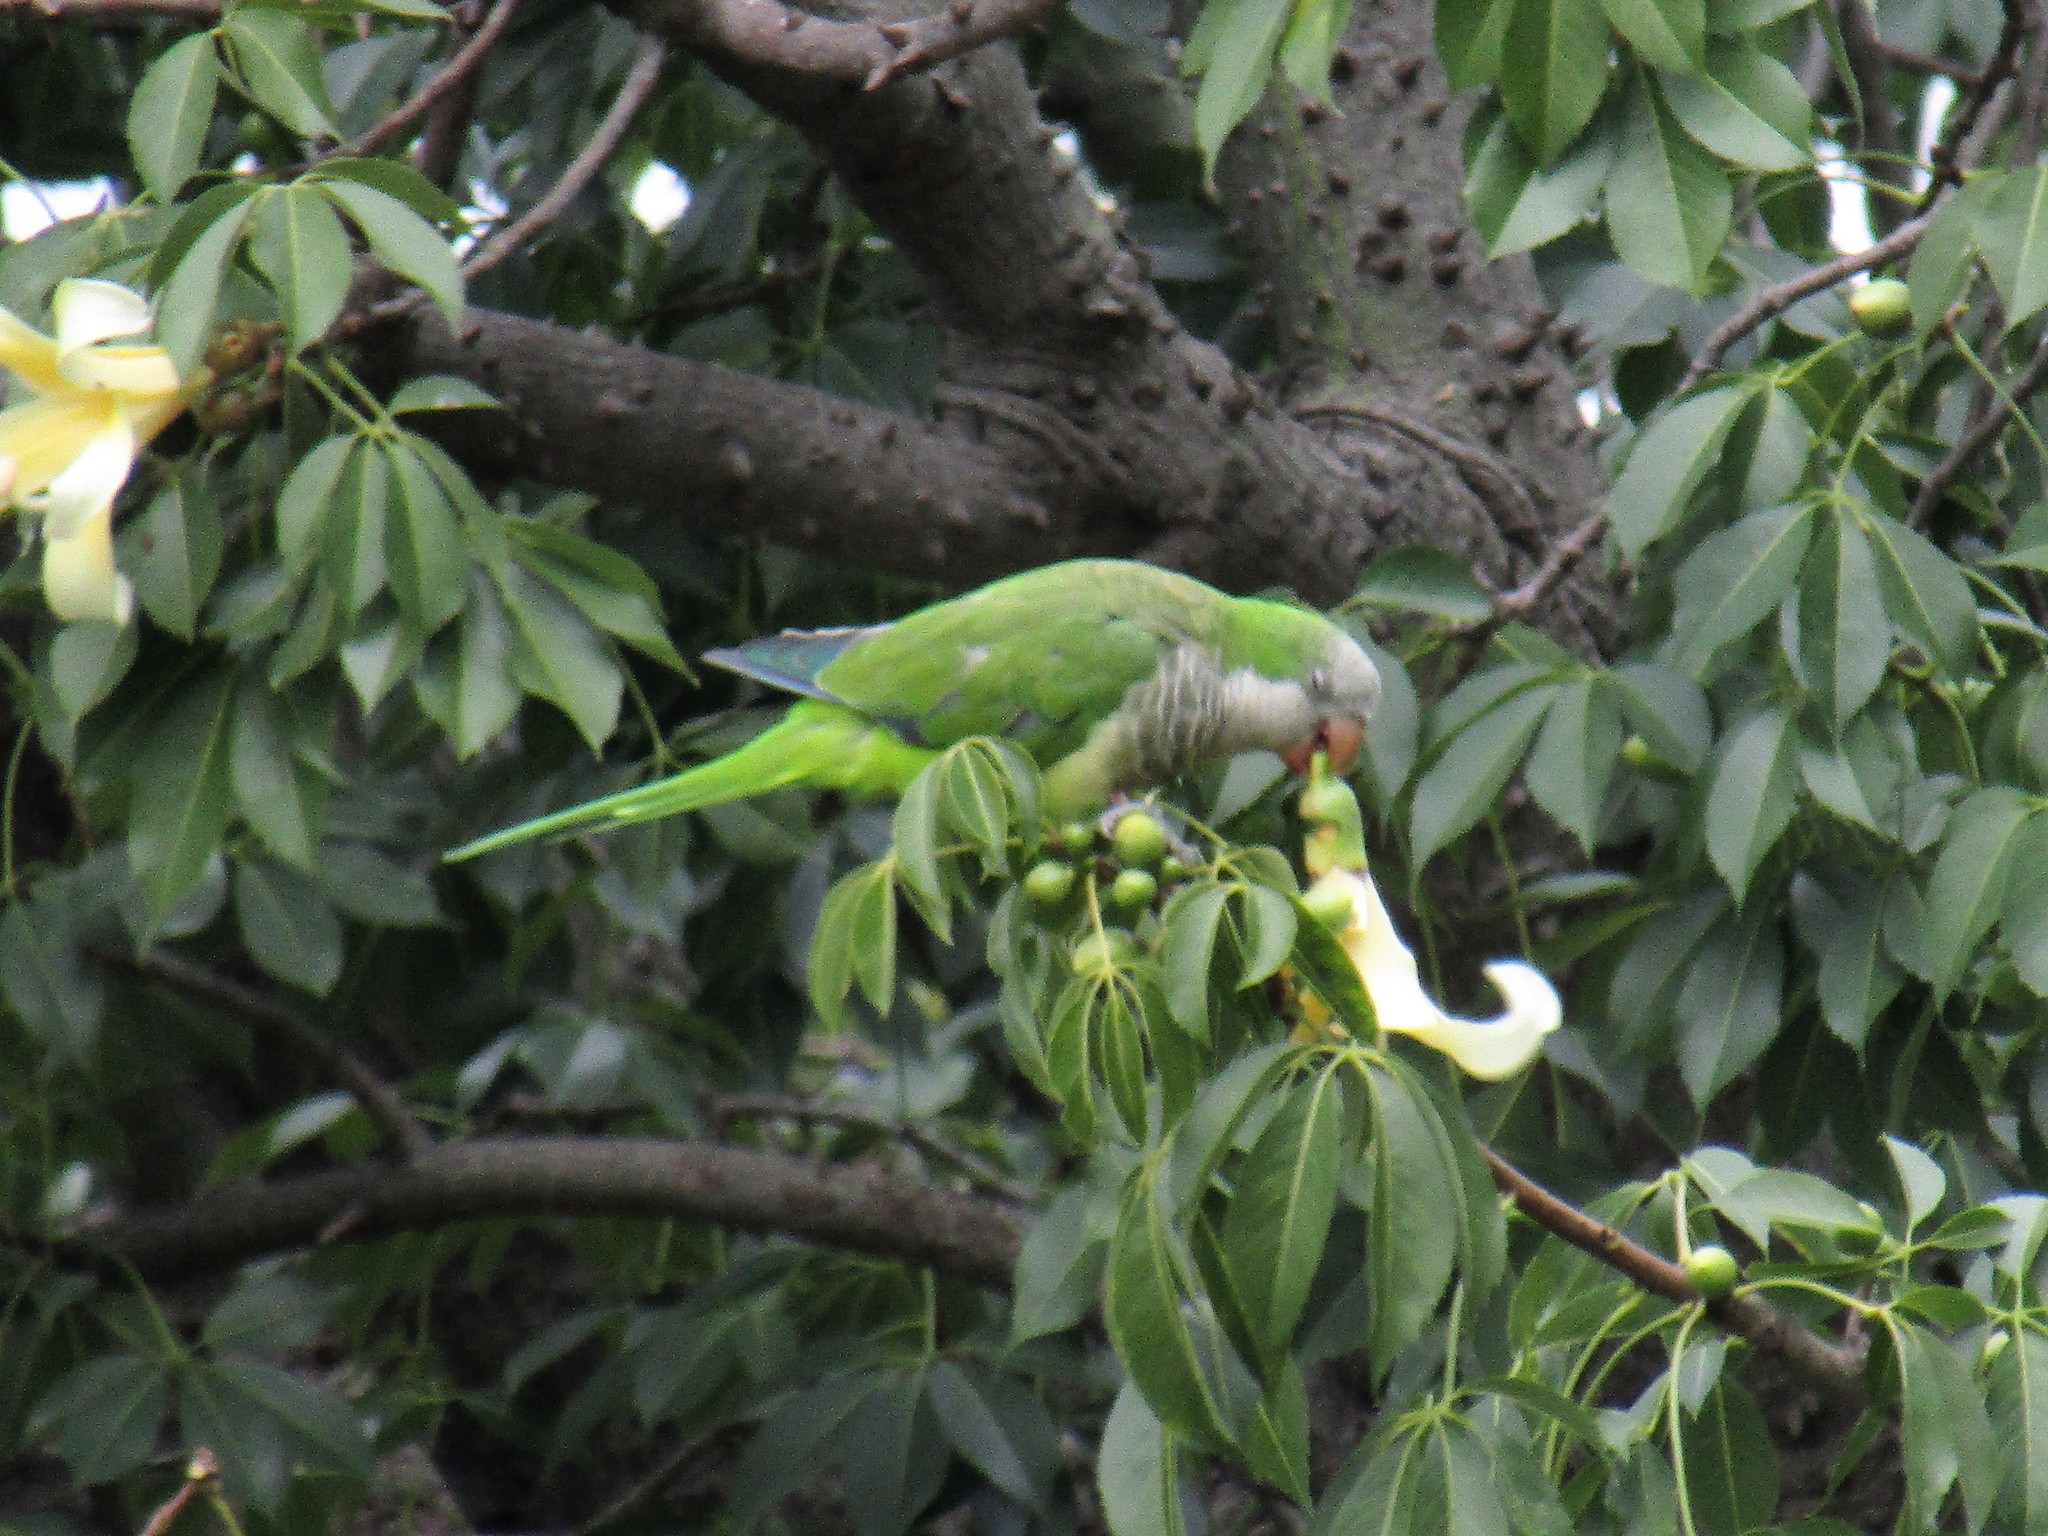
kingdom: Animalia
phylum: Chordata
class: Aves
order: Psittaciformes
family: Psittacidae
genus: Myiopsitta
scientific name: Myiopsitta monachus
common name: Monk parakeet
